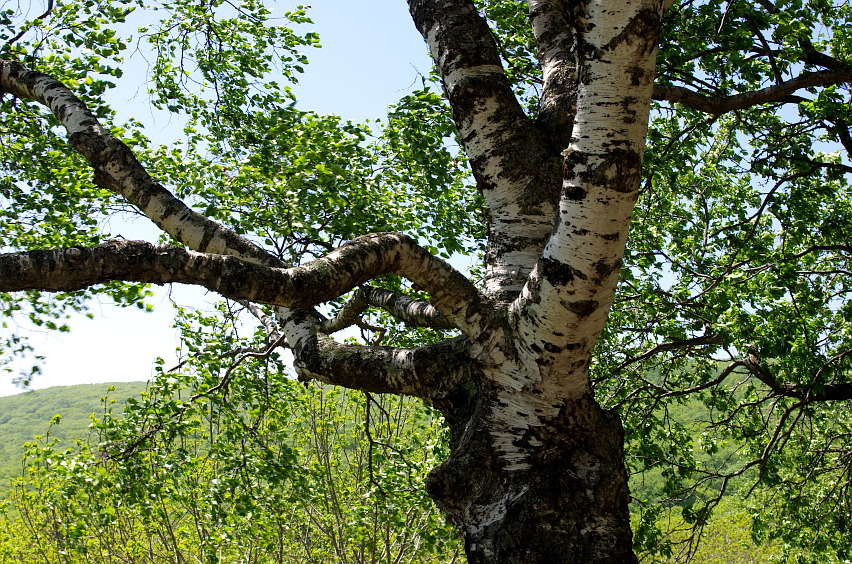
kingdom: Plantae
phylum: Tracheophyta
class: Magnoliopsida
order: Fagales
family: Betulaceae
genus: Betula
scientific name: Betula pendula
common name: Silver birch
